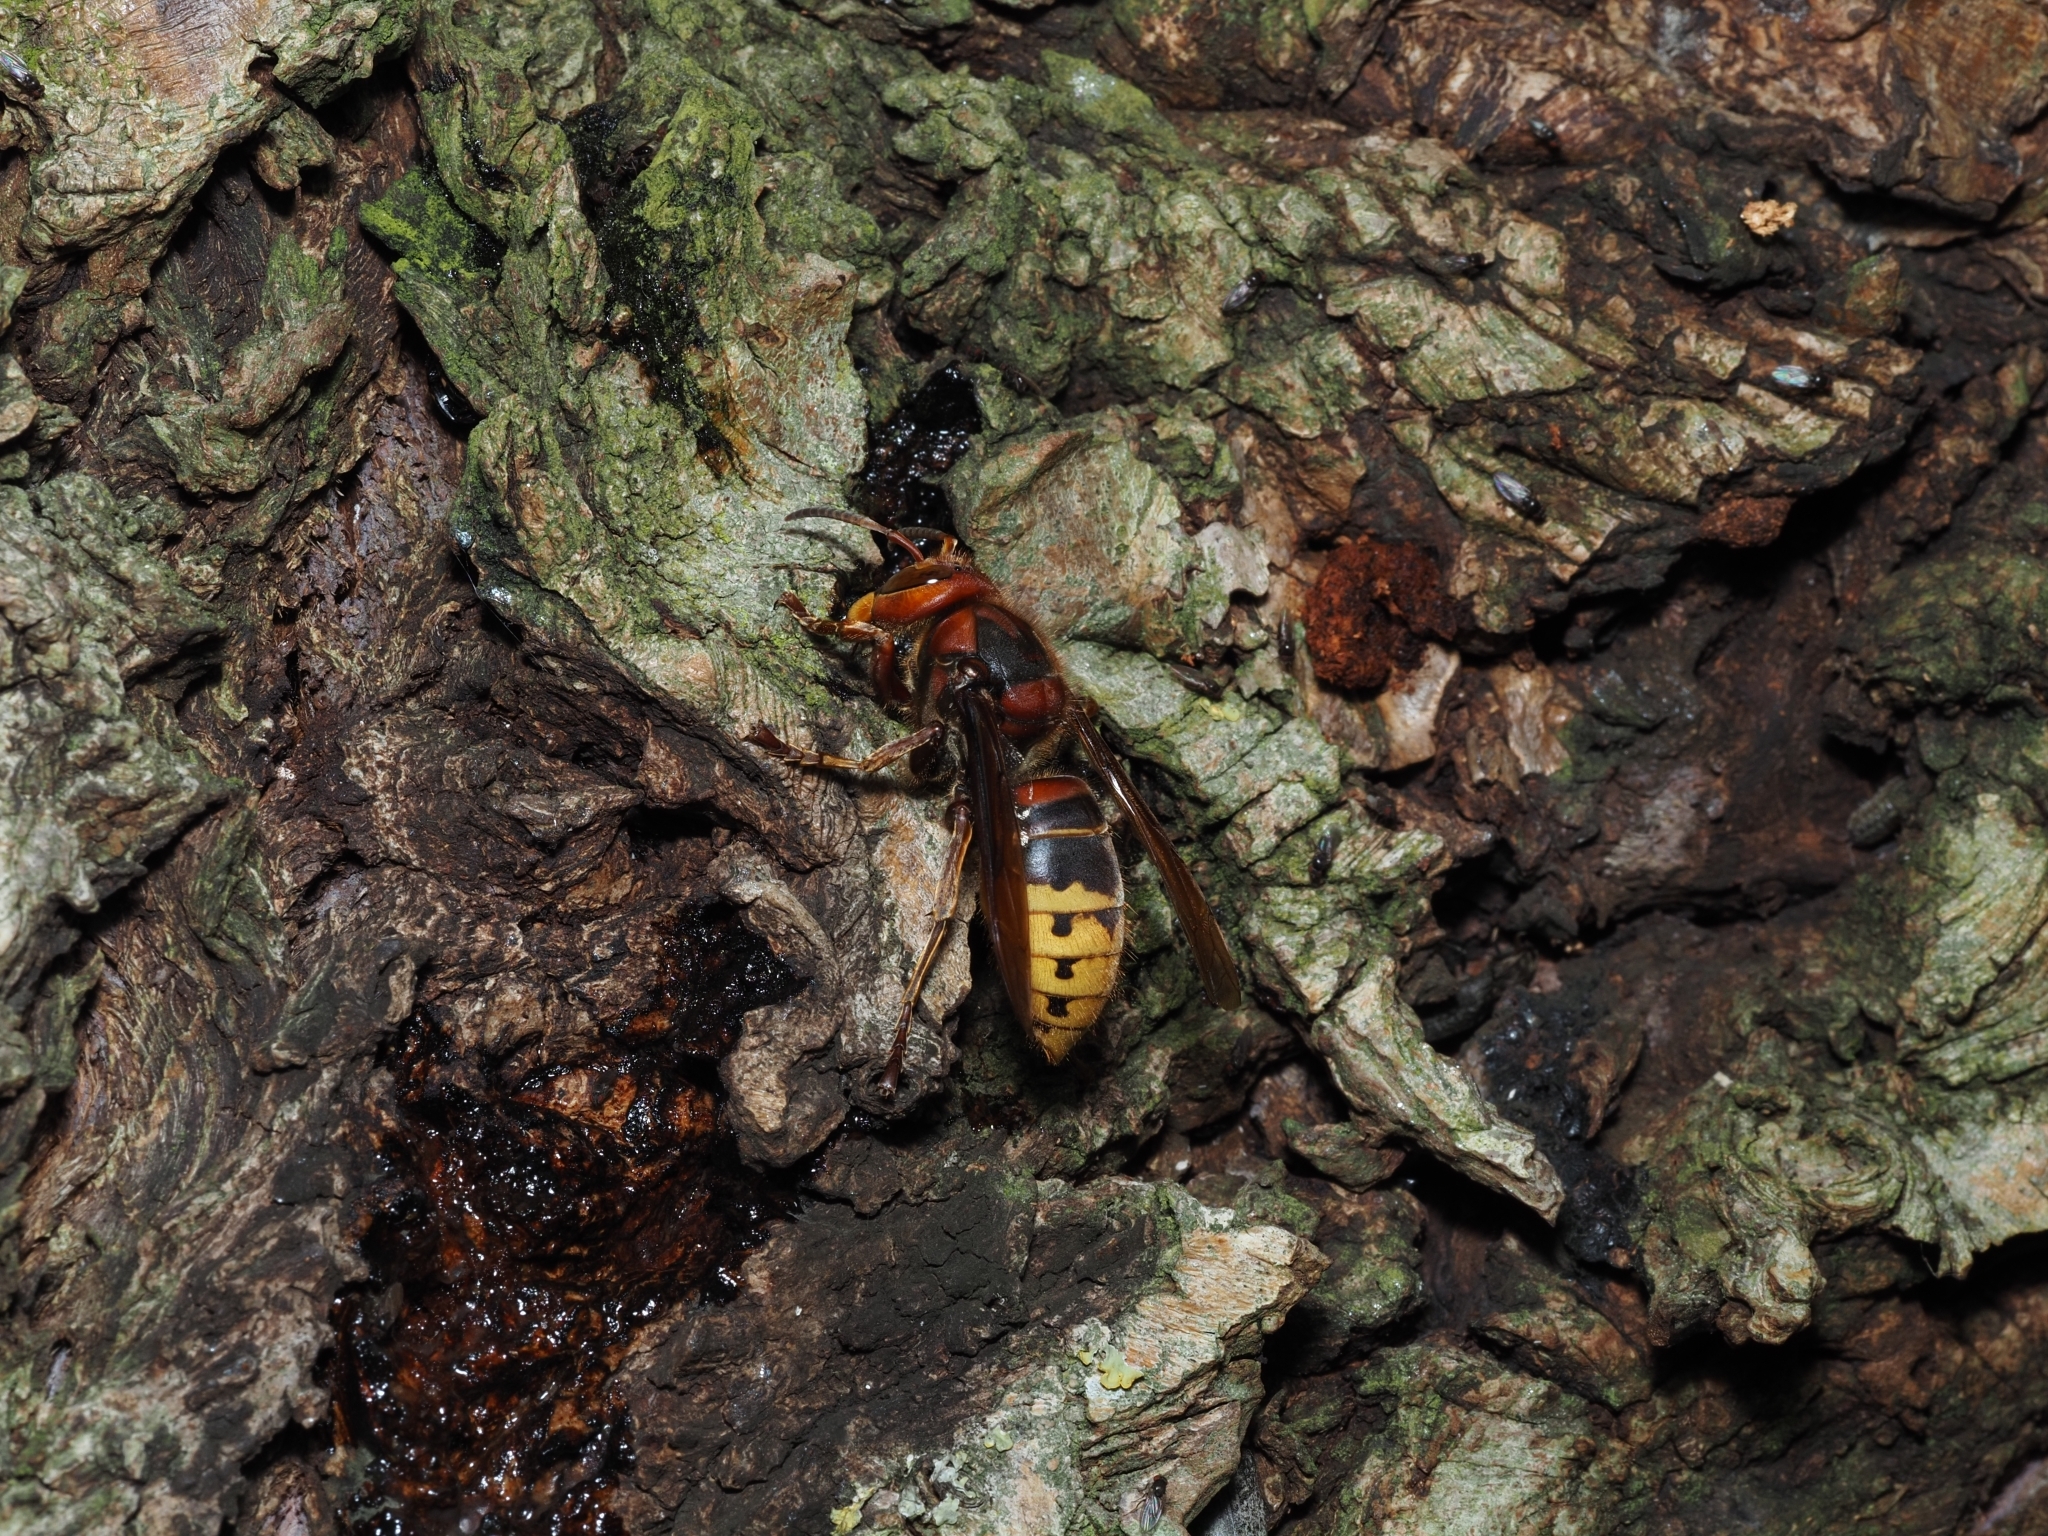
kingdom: Animalia
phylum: Arthropoda
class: Insecta
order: Hymenoptera
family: Vespidae
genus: Vespa
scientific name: Vespa crabro
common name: Hornet
